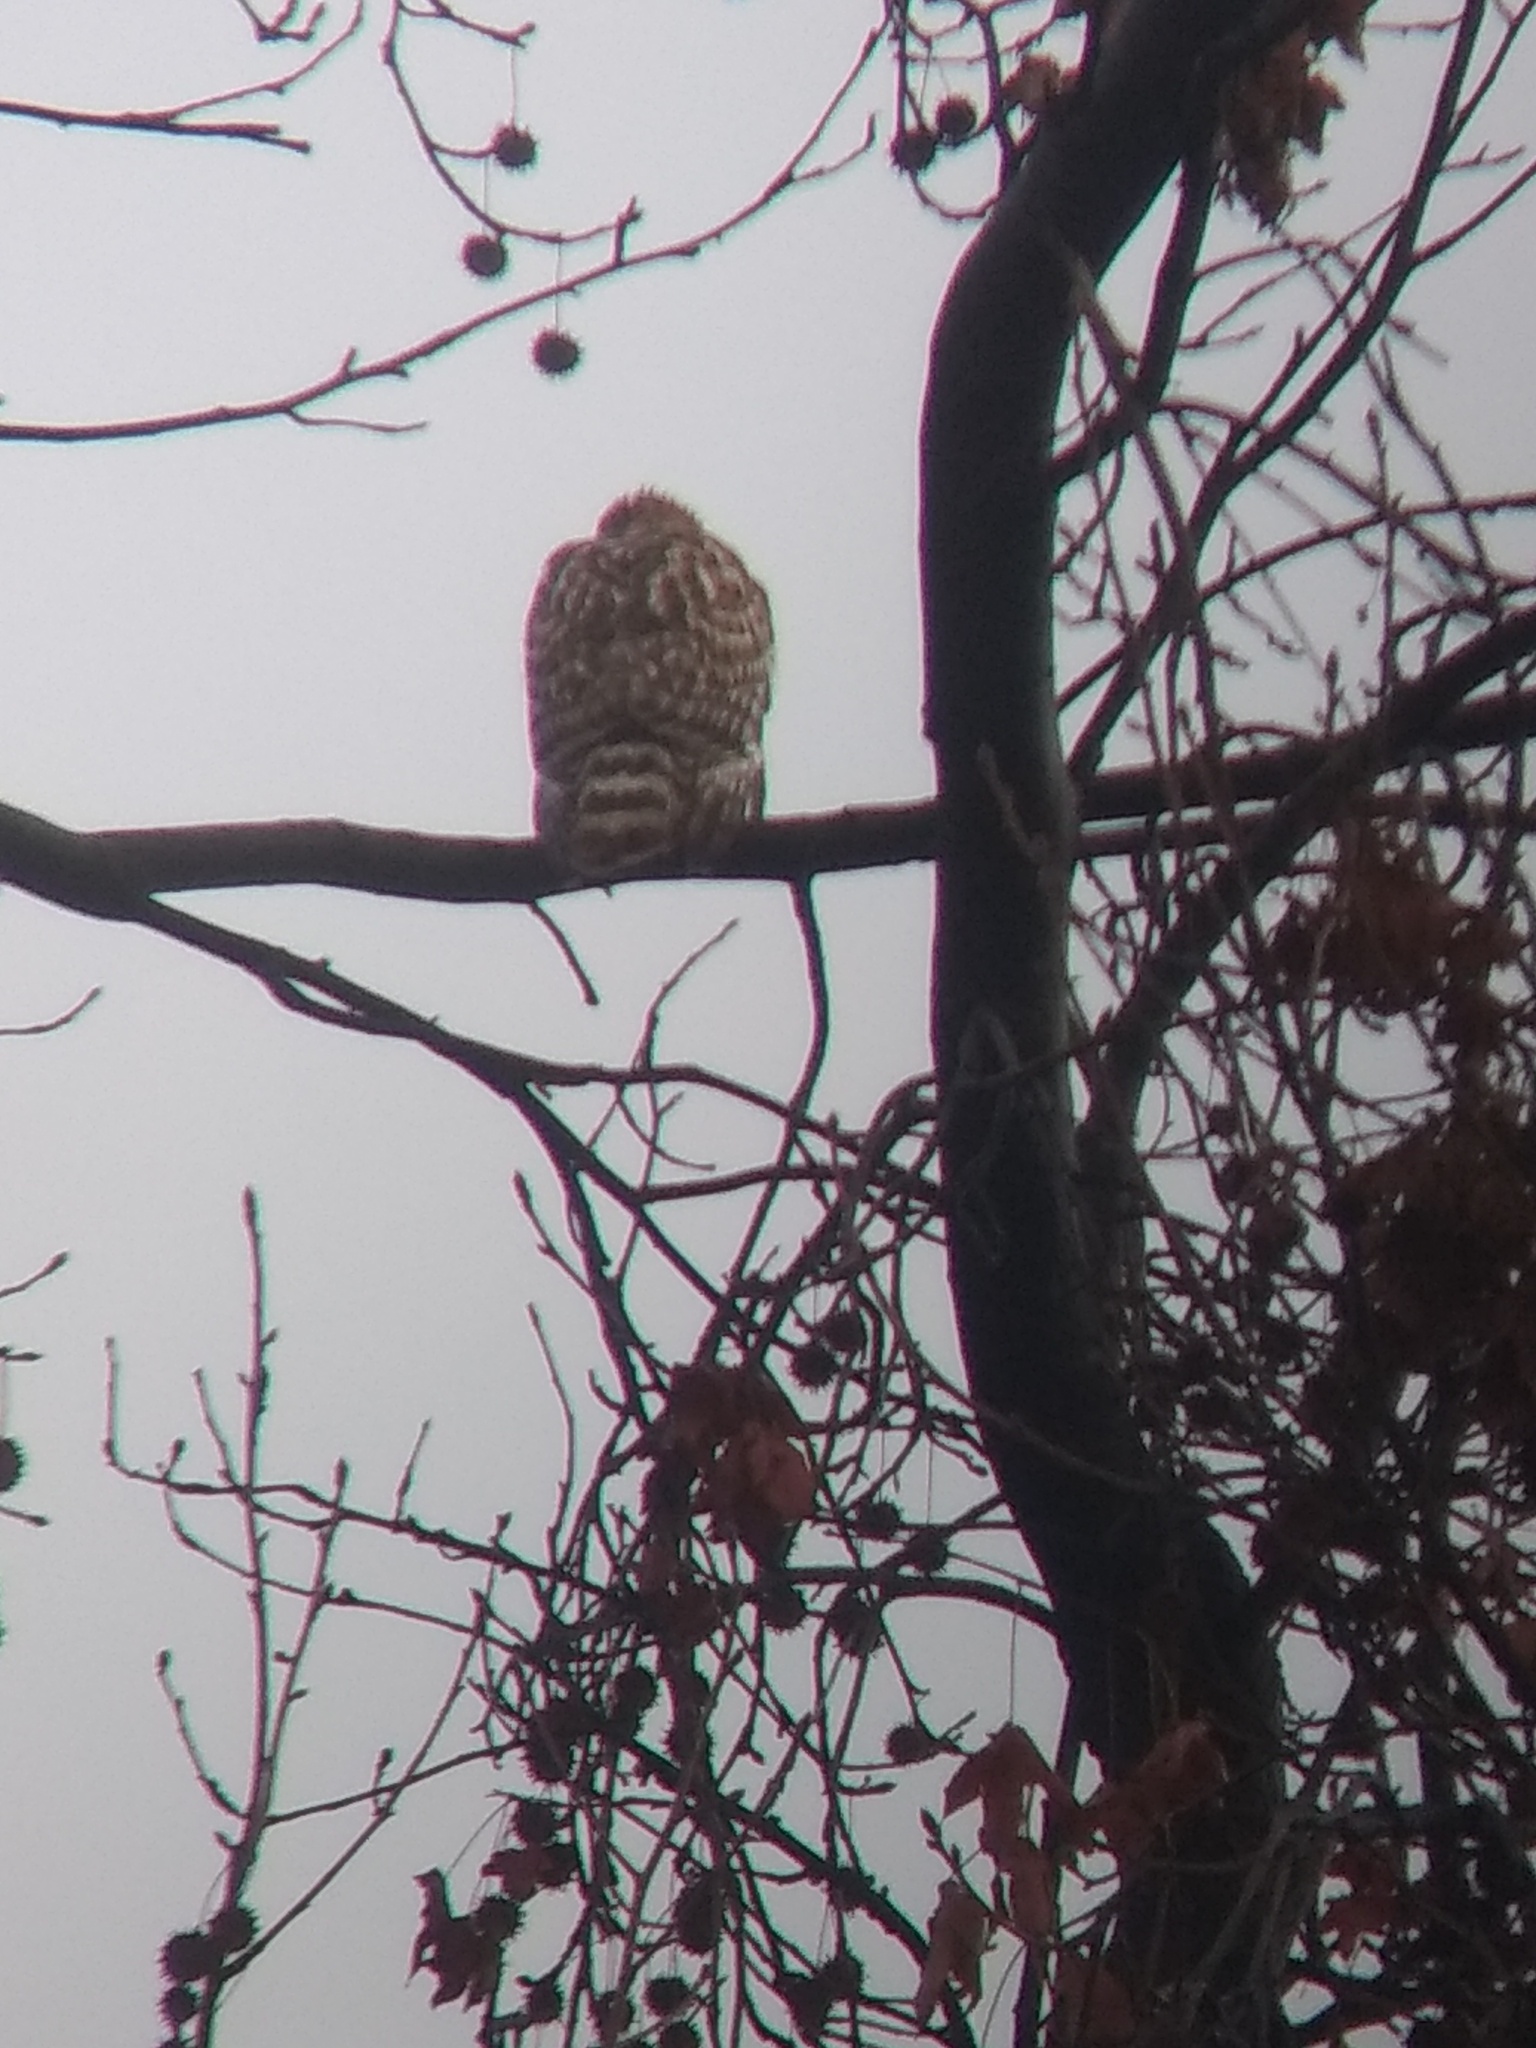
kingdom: Animalia
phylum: Chordata
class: Aves
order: Accipitriformes
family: Accipitridae
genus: Buteo
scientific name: Buteo lineatus
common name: Red-shouldered hawk
